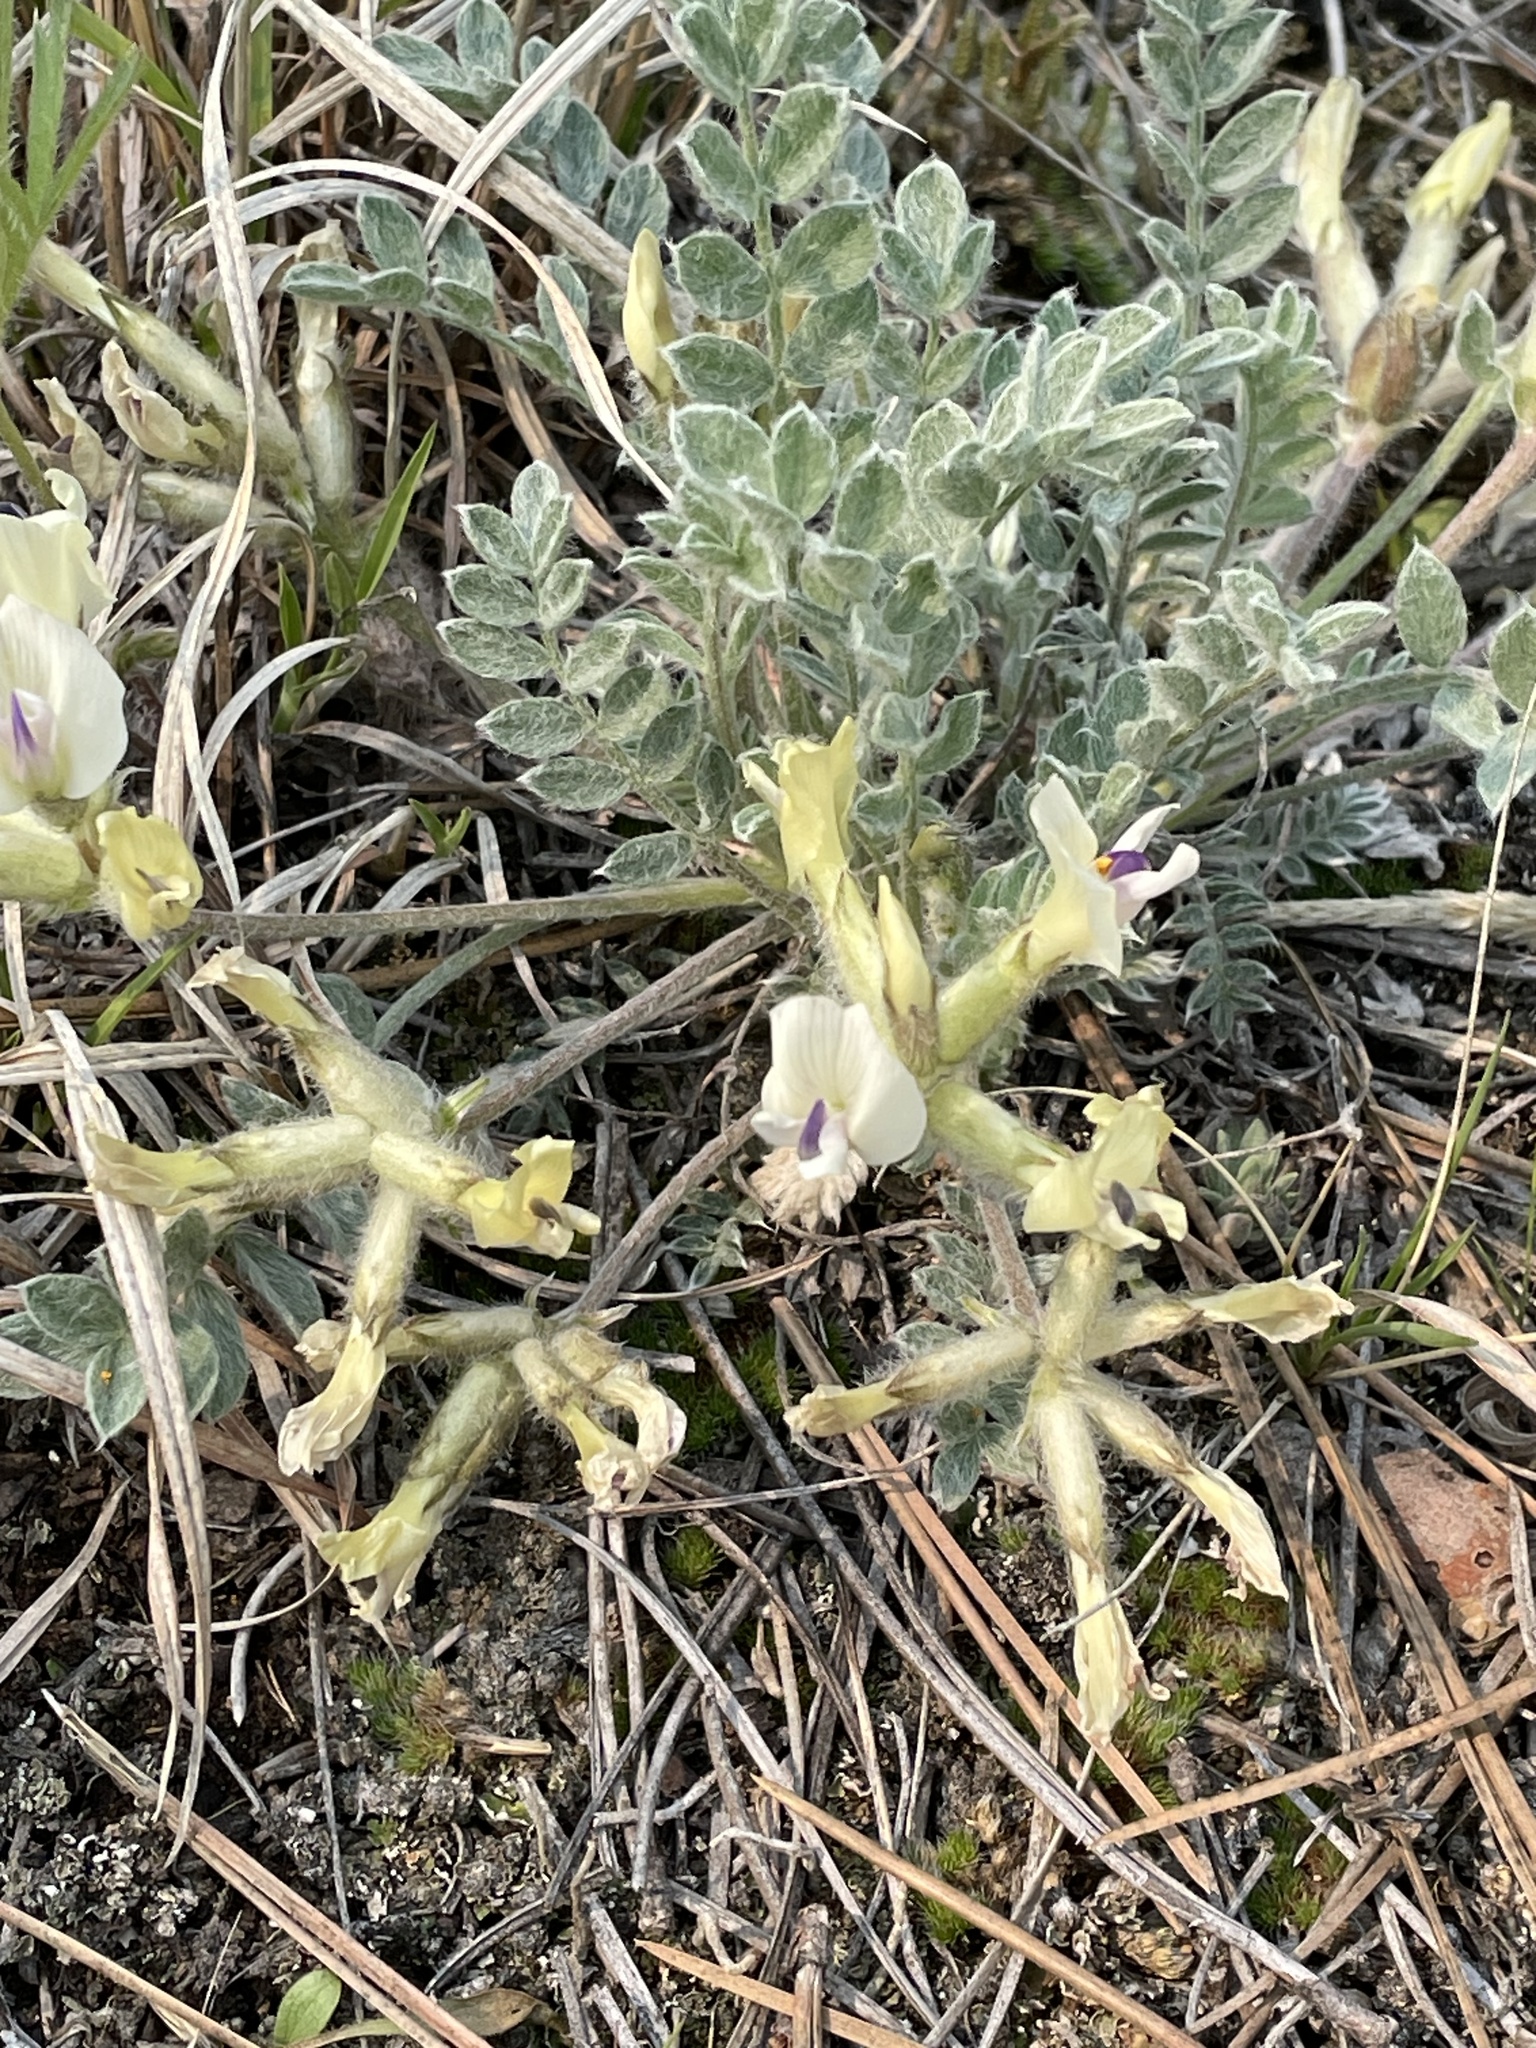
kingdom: Plantae
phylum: Tracheophyta
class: Magnoliopsida
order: Fabales
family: Fabaceae
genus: Astragalus
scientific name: Astragalus purshii
